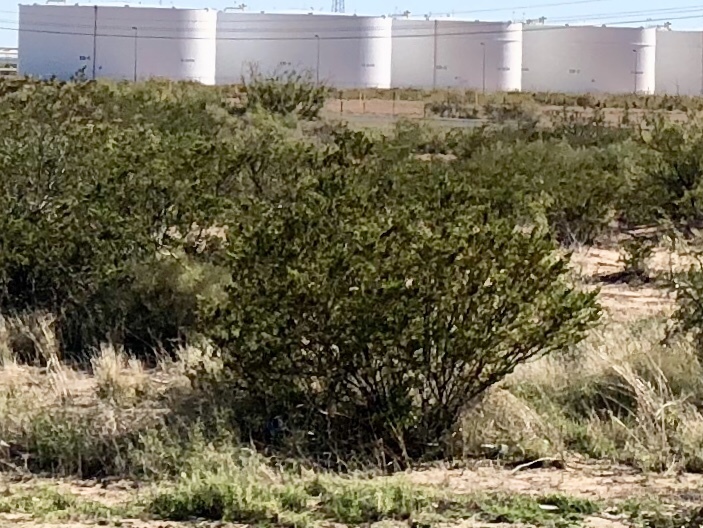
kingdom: Plantae
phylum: Tracheophyta
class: Magnoliopsida
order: Zygophyllales
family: Zygophyllaceae
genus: Larrea
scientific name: Larrea tridentata
